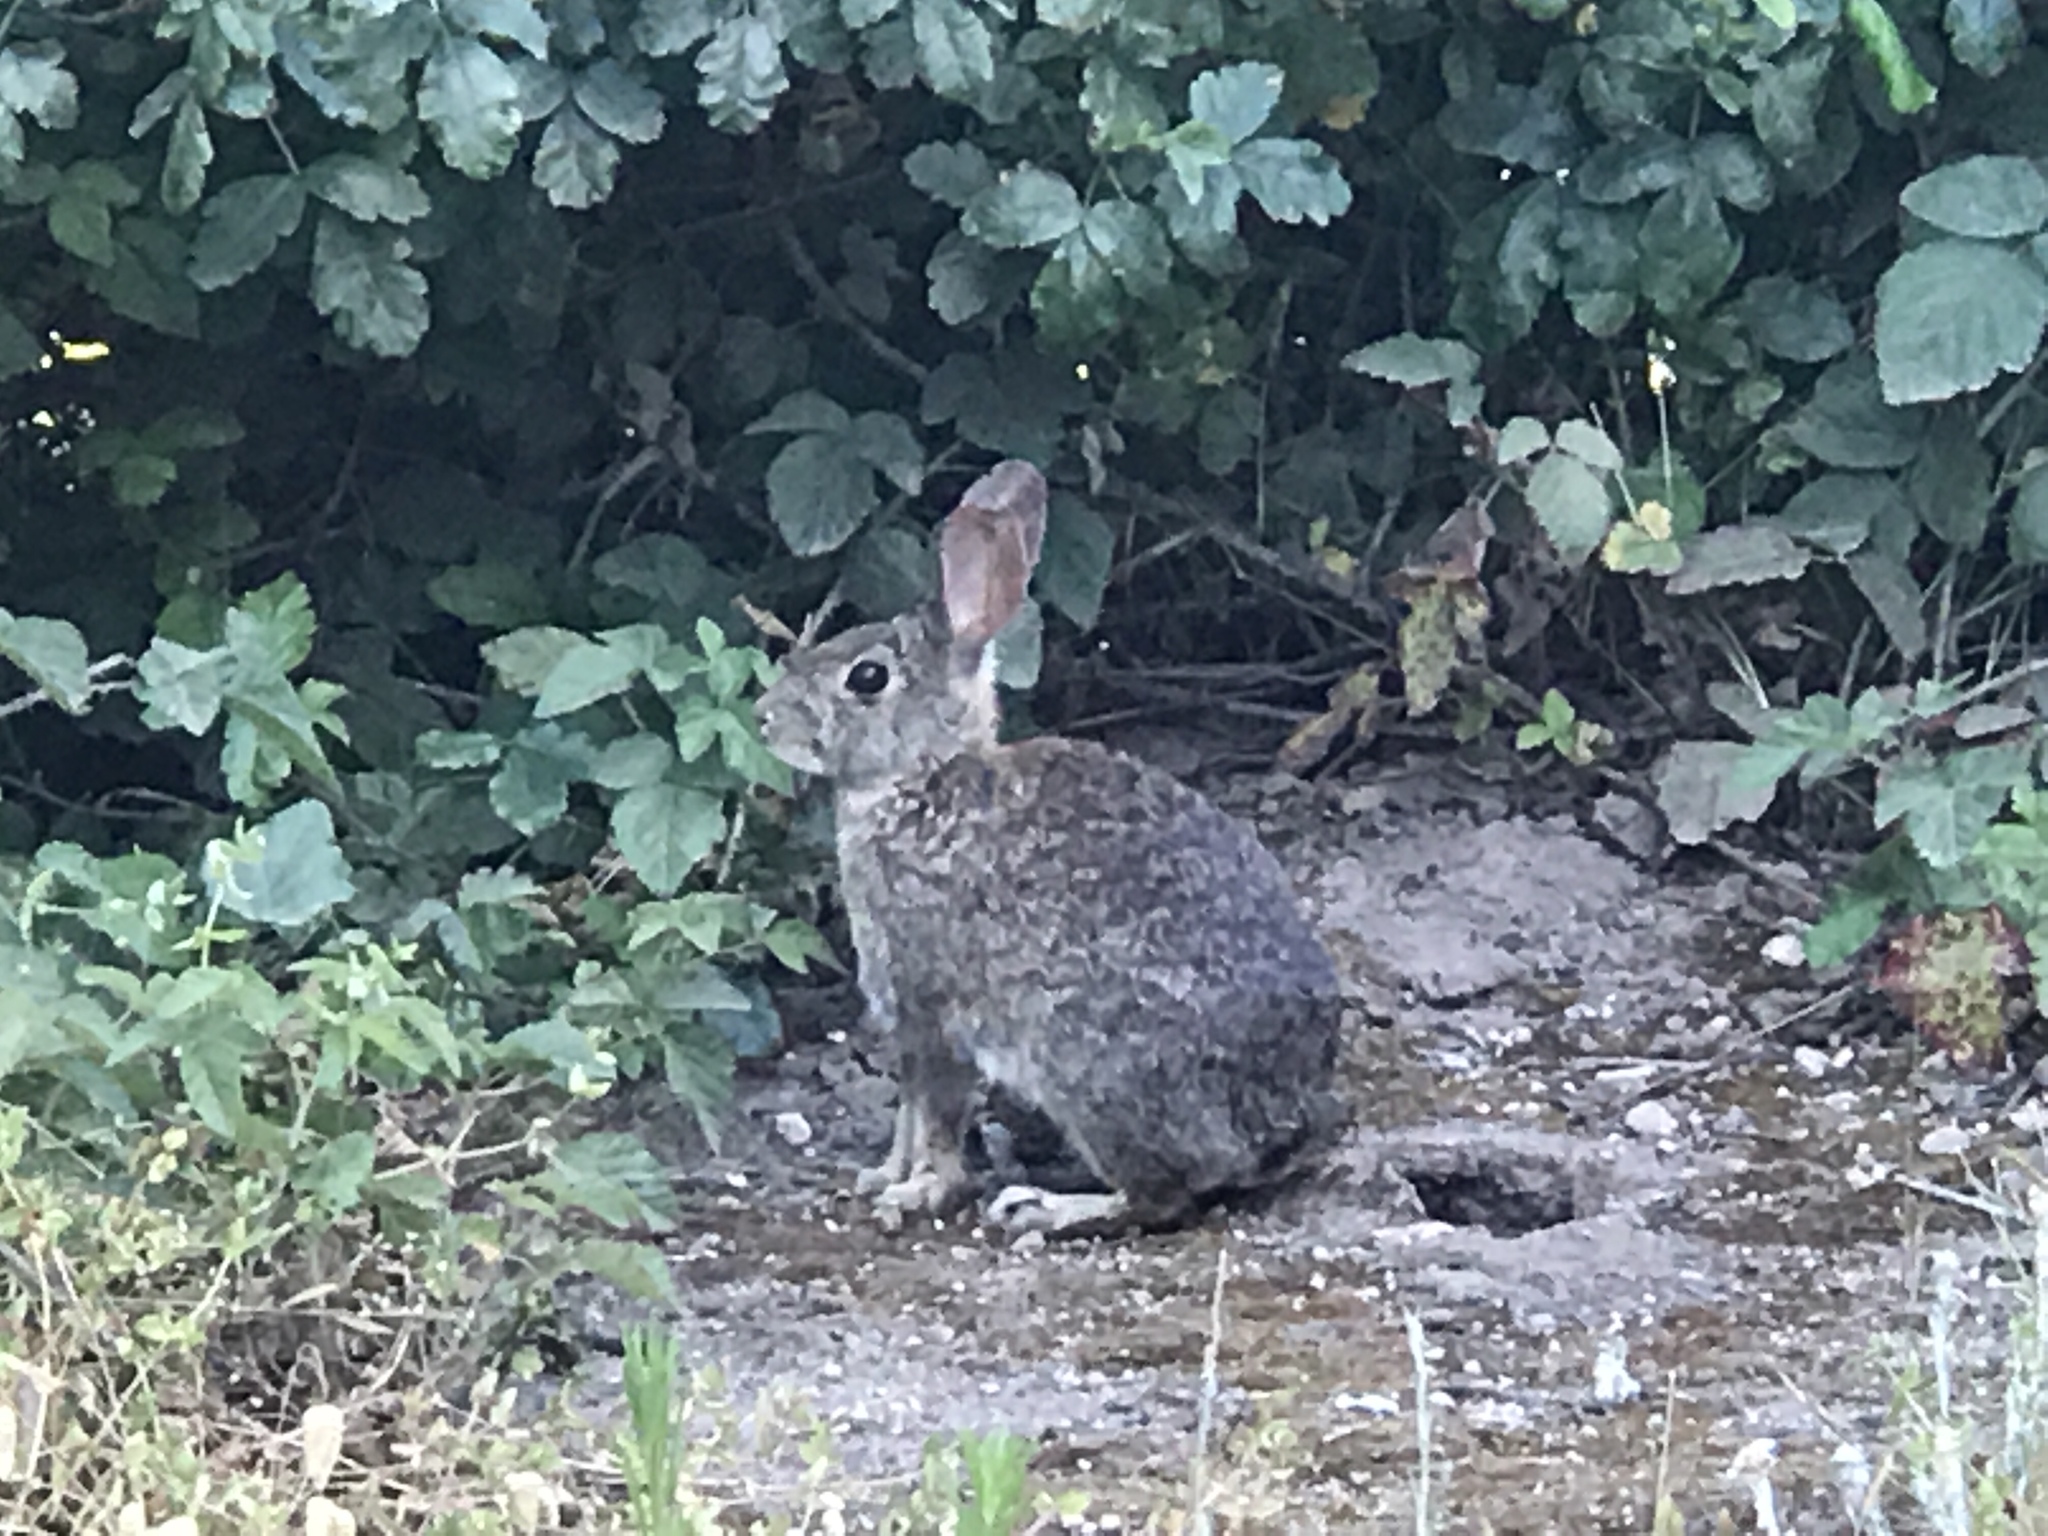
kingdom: Animalia
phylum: Chordata
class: Mammalia
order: Lagomorpha
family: Leporidae
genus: Sylvilagus
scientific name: Sylvilagus bachmani
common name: Brush rabbit
